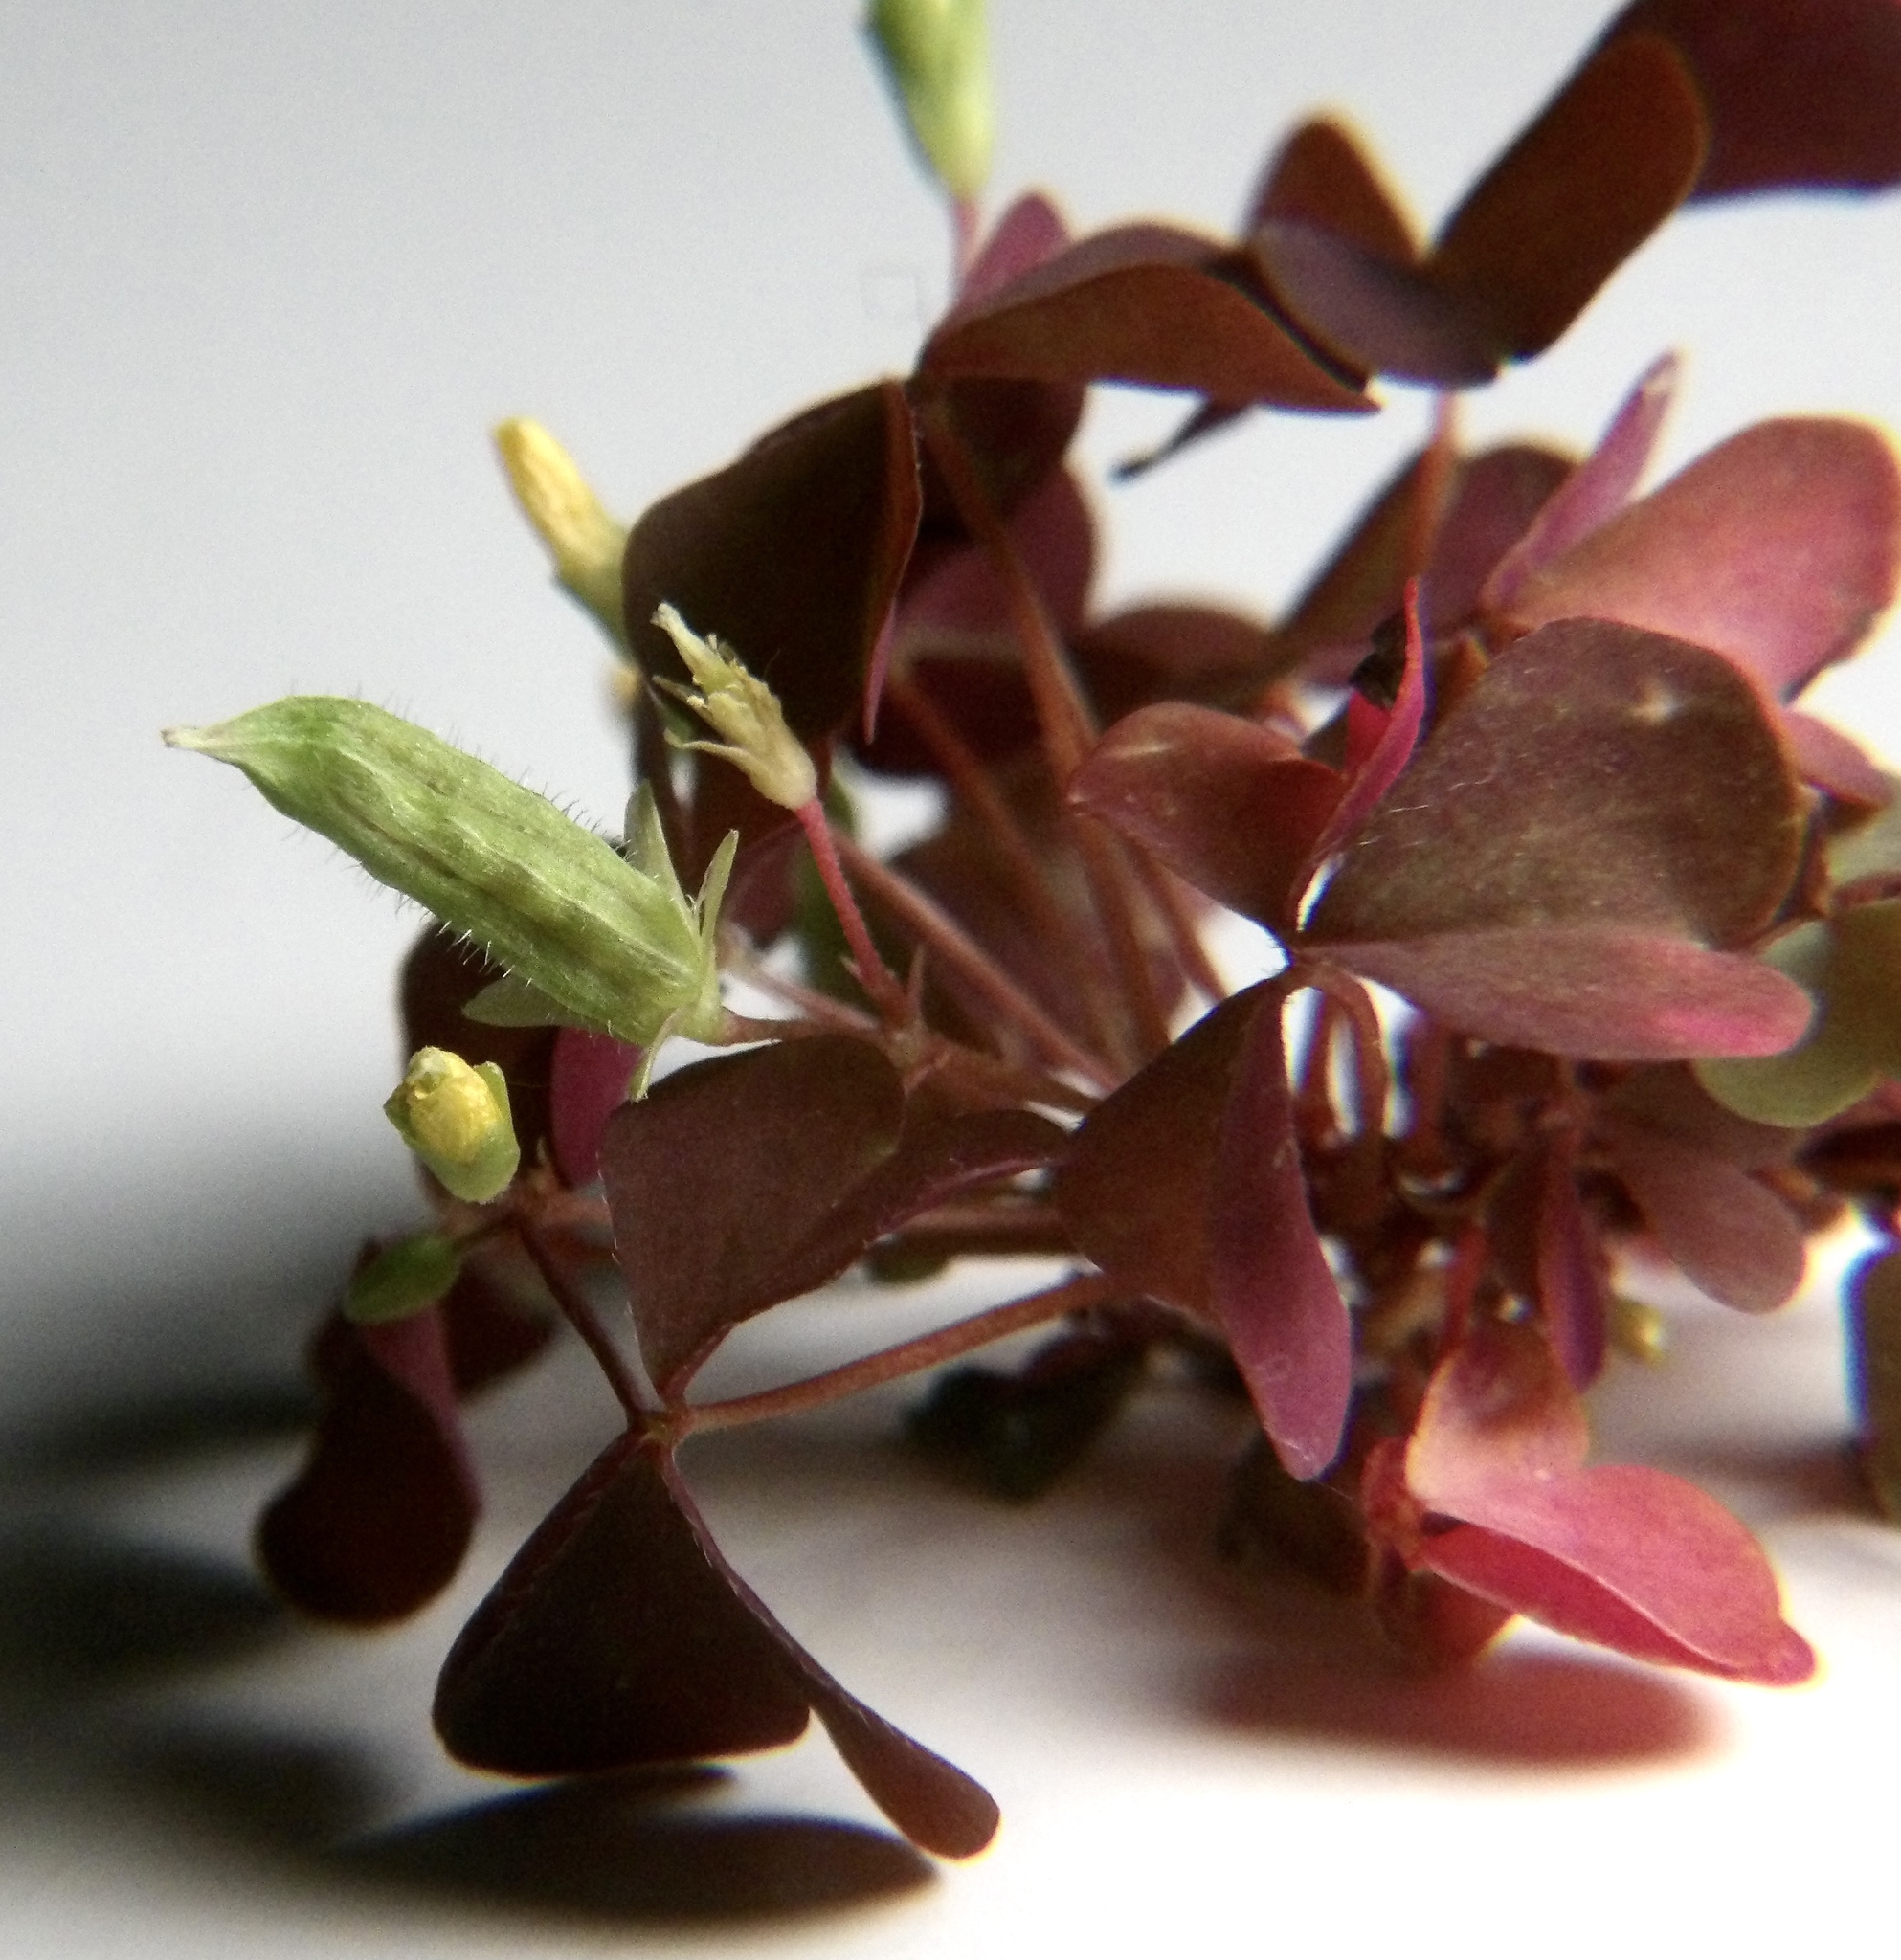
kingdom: Plantae
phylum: Tracheophyta
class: Magnoliopsida
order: Oxalidales
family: Oxalidaceae
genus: Oxalis
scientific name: Oxalis corniculata
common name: Procumbent yellow-sorrel
